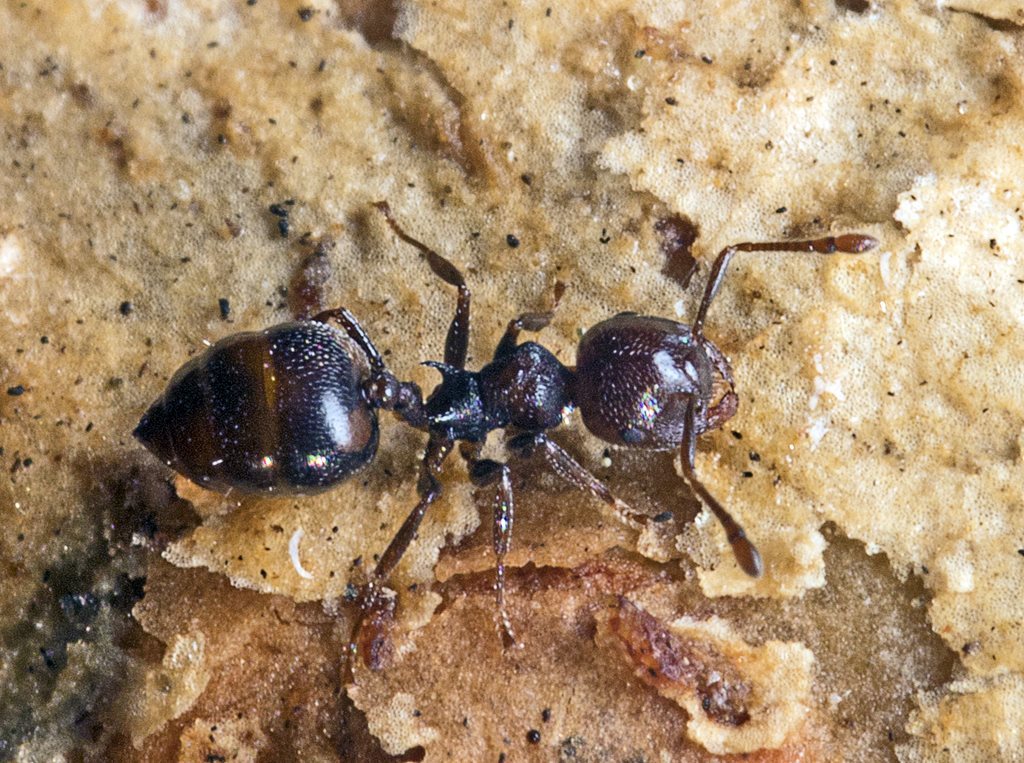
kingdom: Animalia
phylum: Arthropoda
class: Insecta
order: Hymenoptera
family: Formicidae
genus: Crematogaster
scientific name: Crematogaster cornigera
